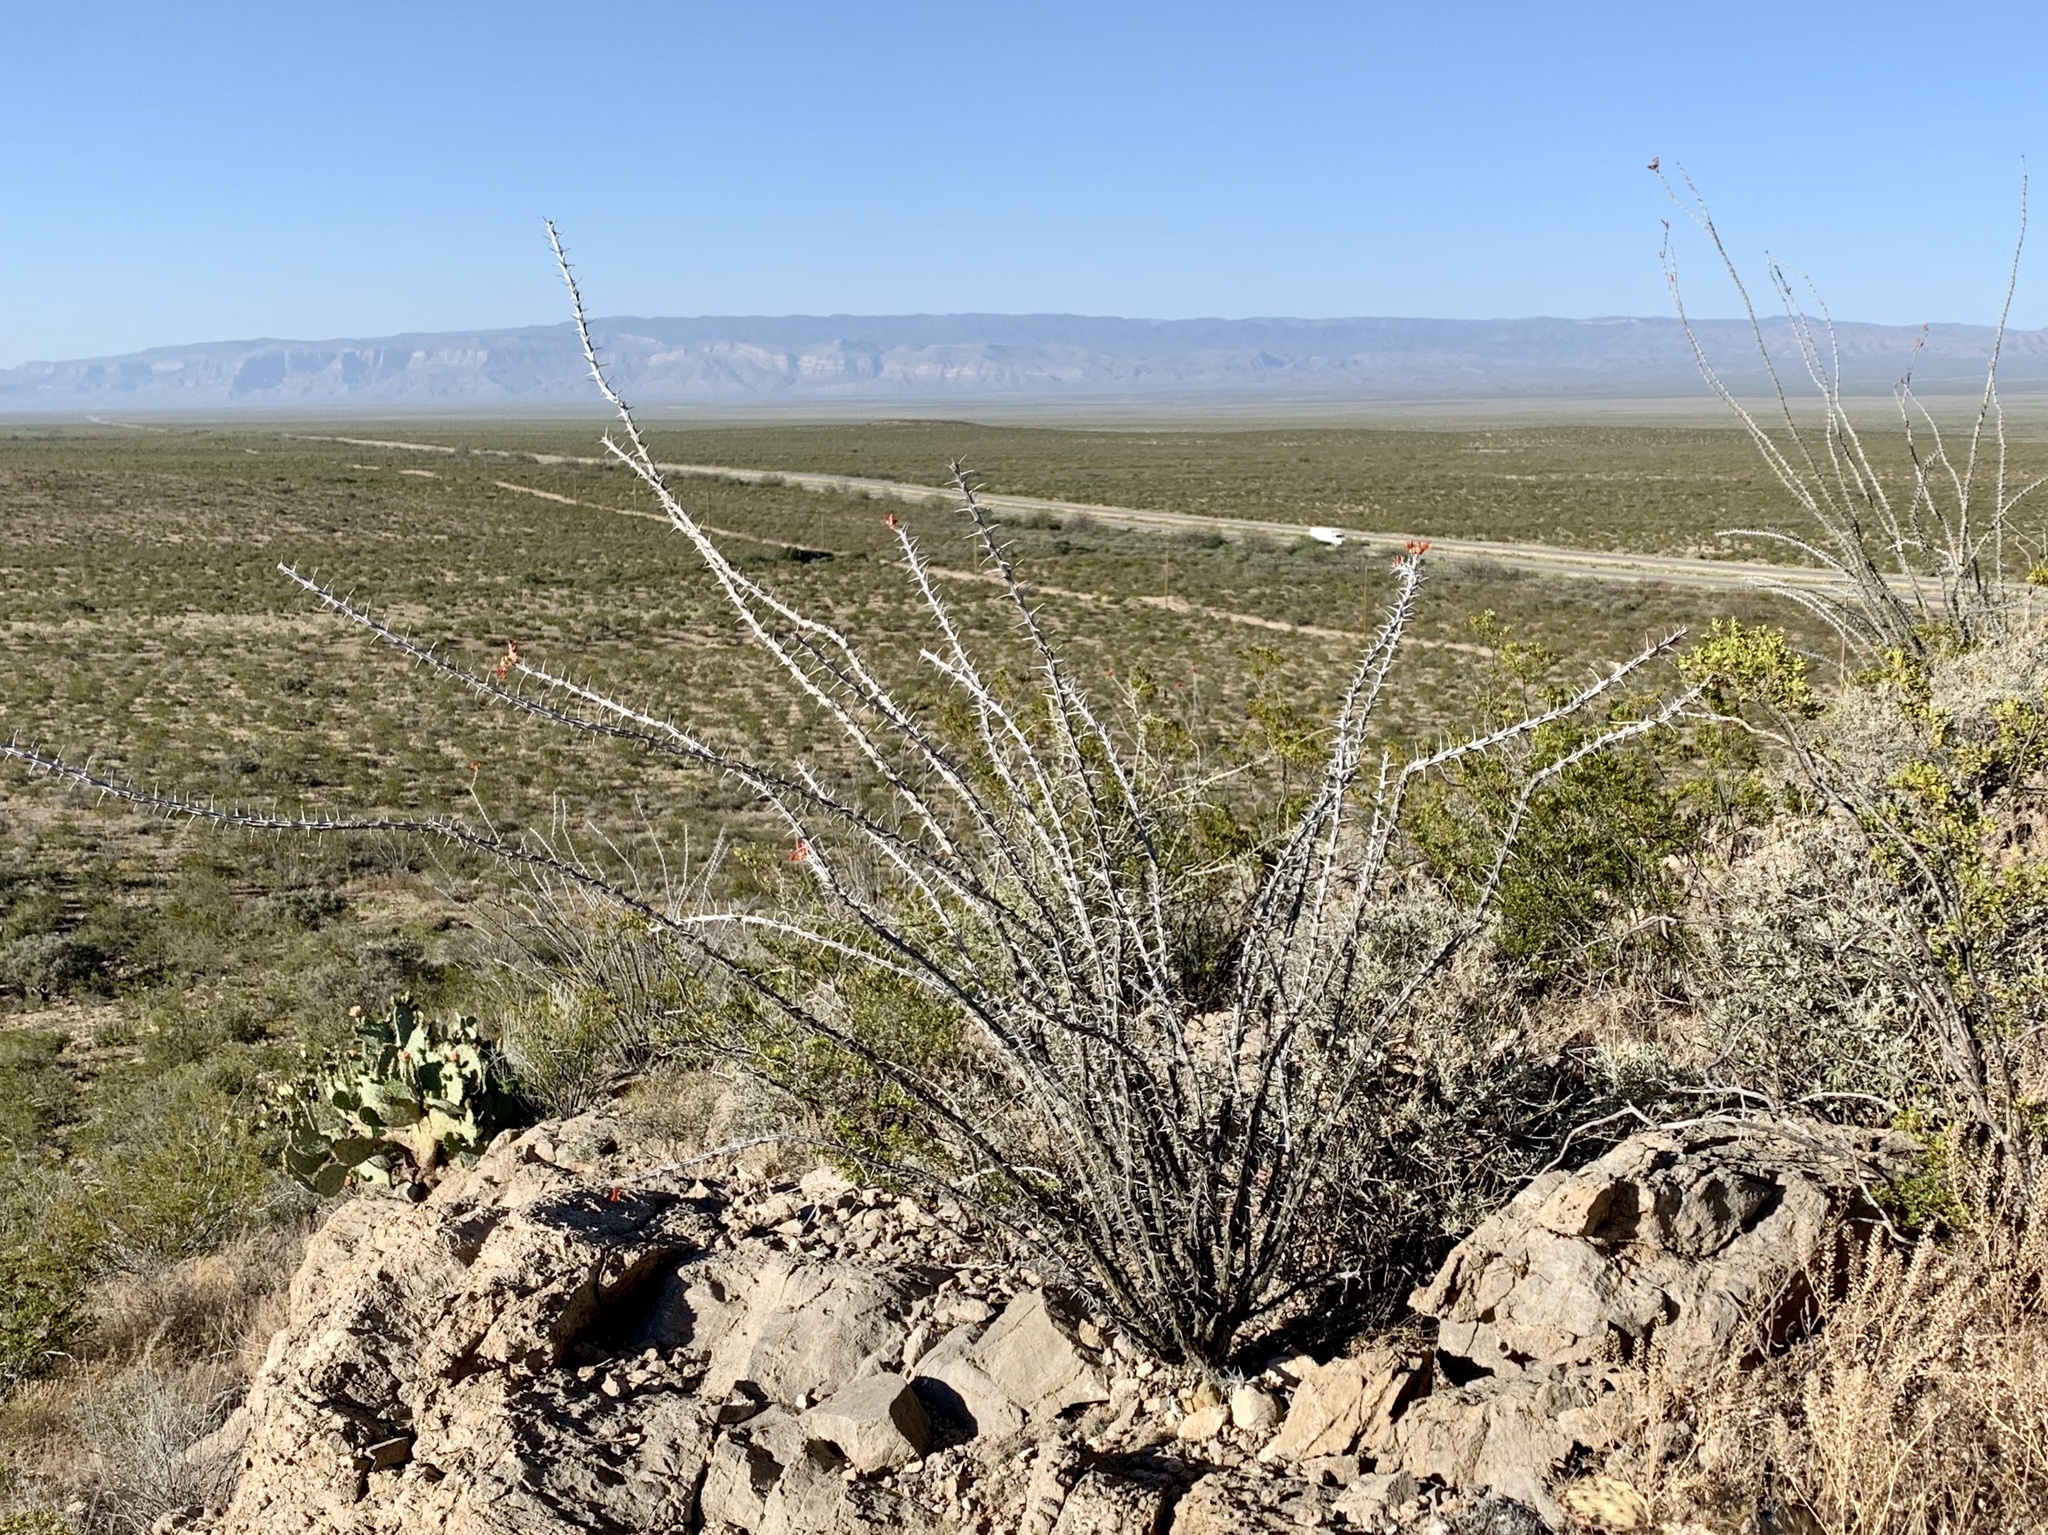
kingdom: Plantae
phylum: Tracheophyta
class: Magnoliopsida
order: Ericales
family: Fouquieriaceae
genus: Fouquieria
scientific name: Fouquieria splendens
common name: Vine-cactus
